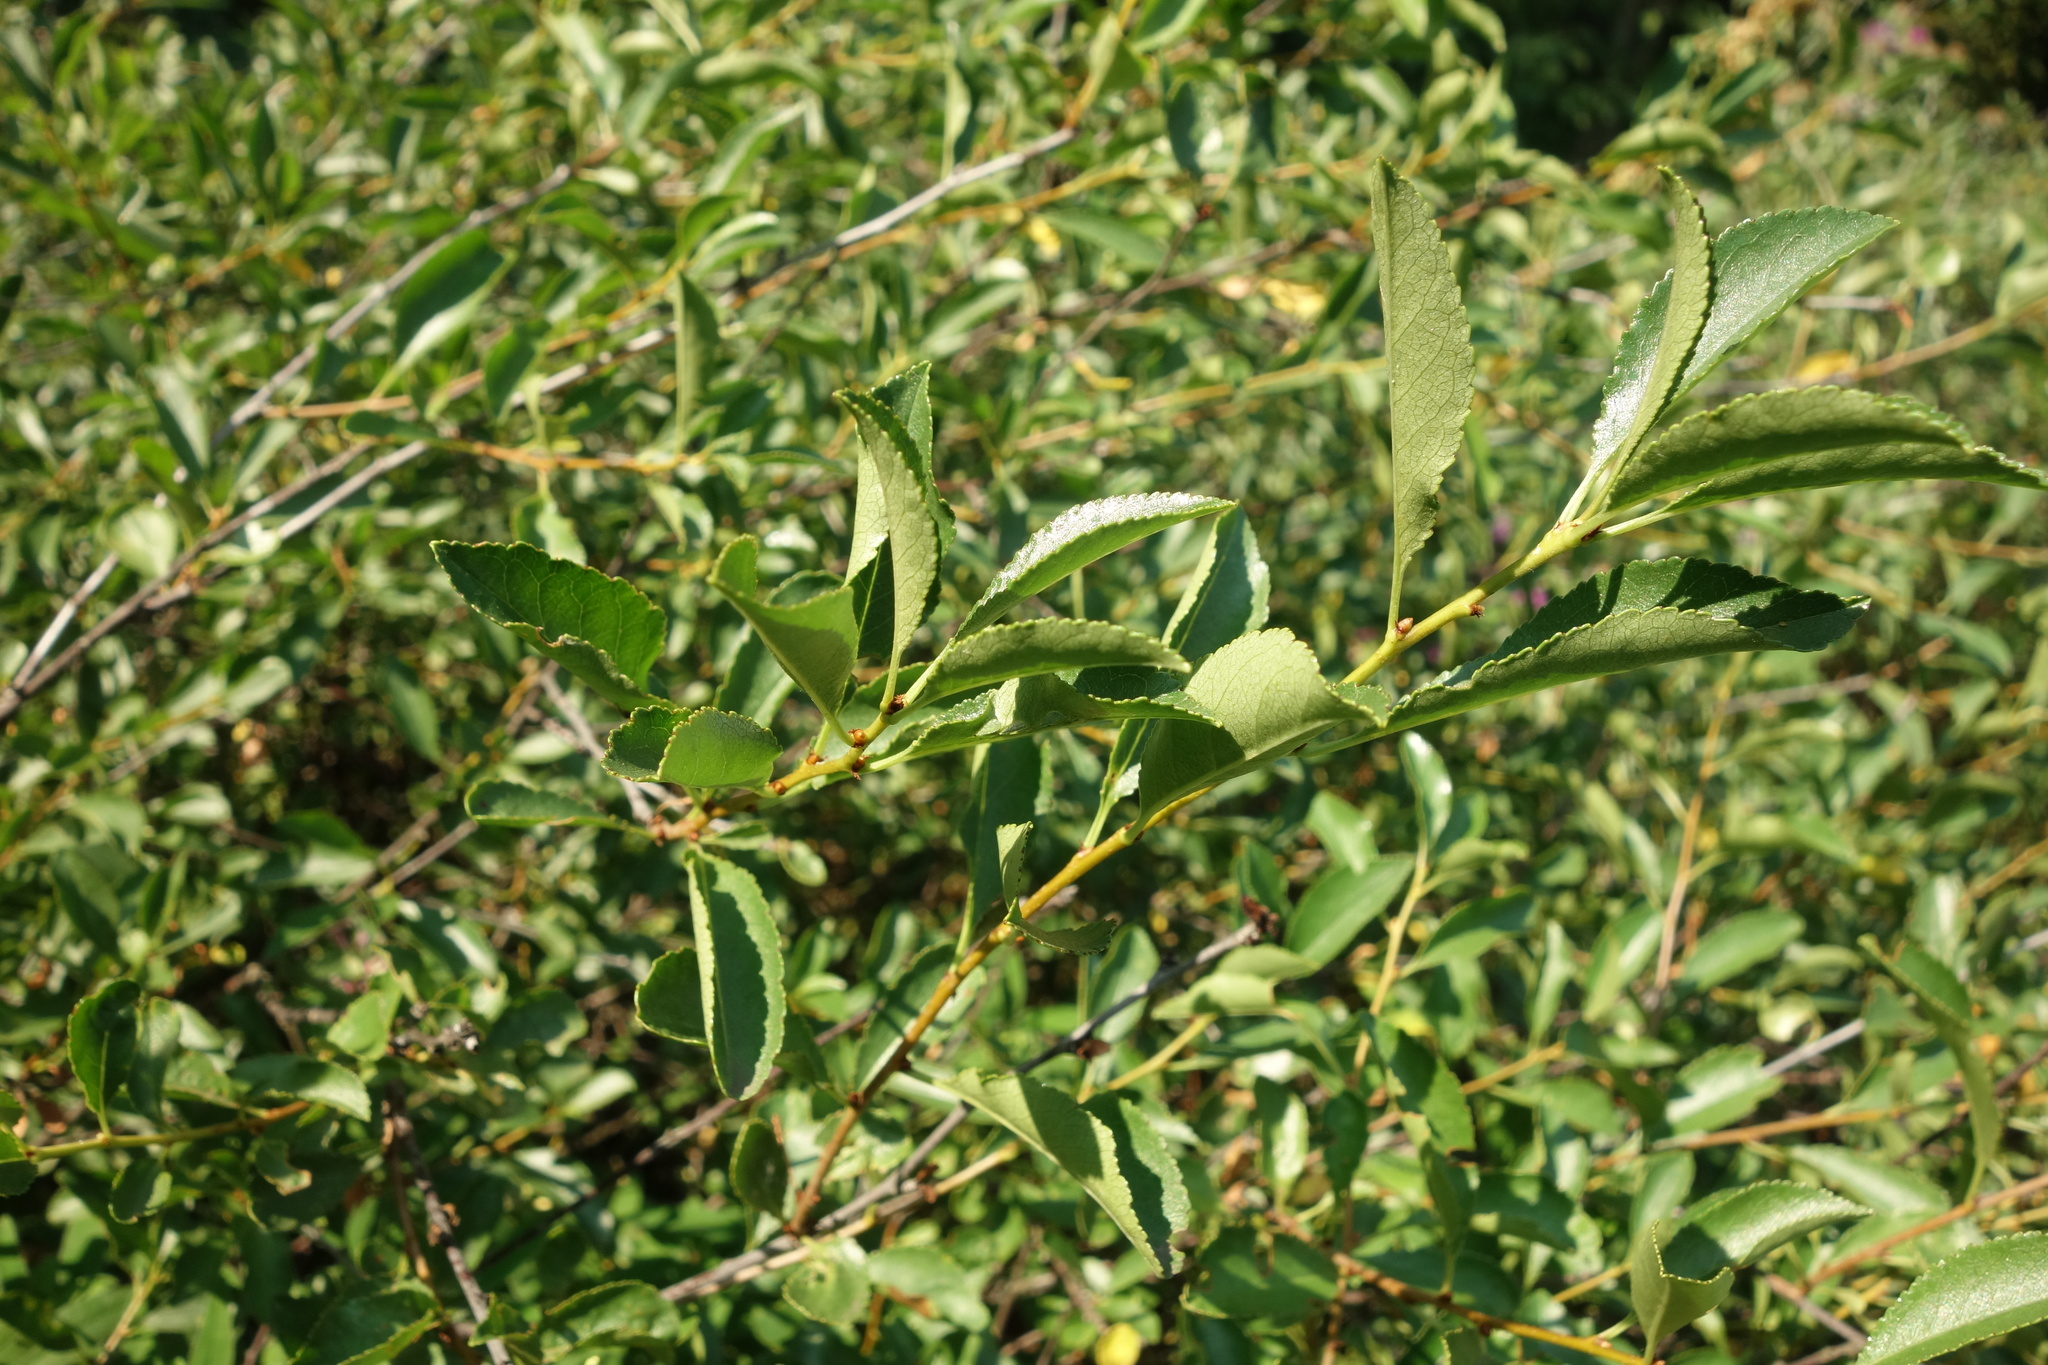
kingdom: Plantae
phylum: Tracheophyta
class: Magnoliopsida
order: Rosales
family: Rosaceae
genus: Prunus
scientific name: Prunus fruticosa
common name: European dwarf cherry
